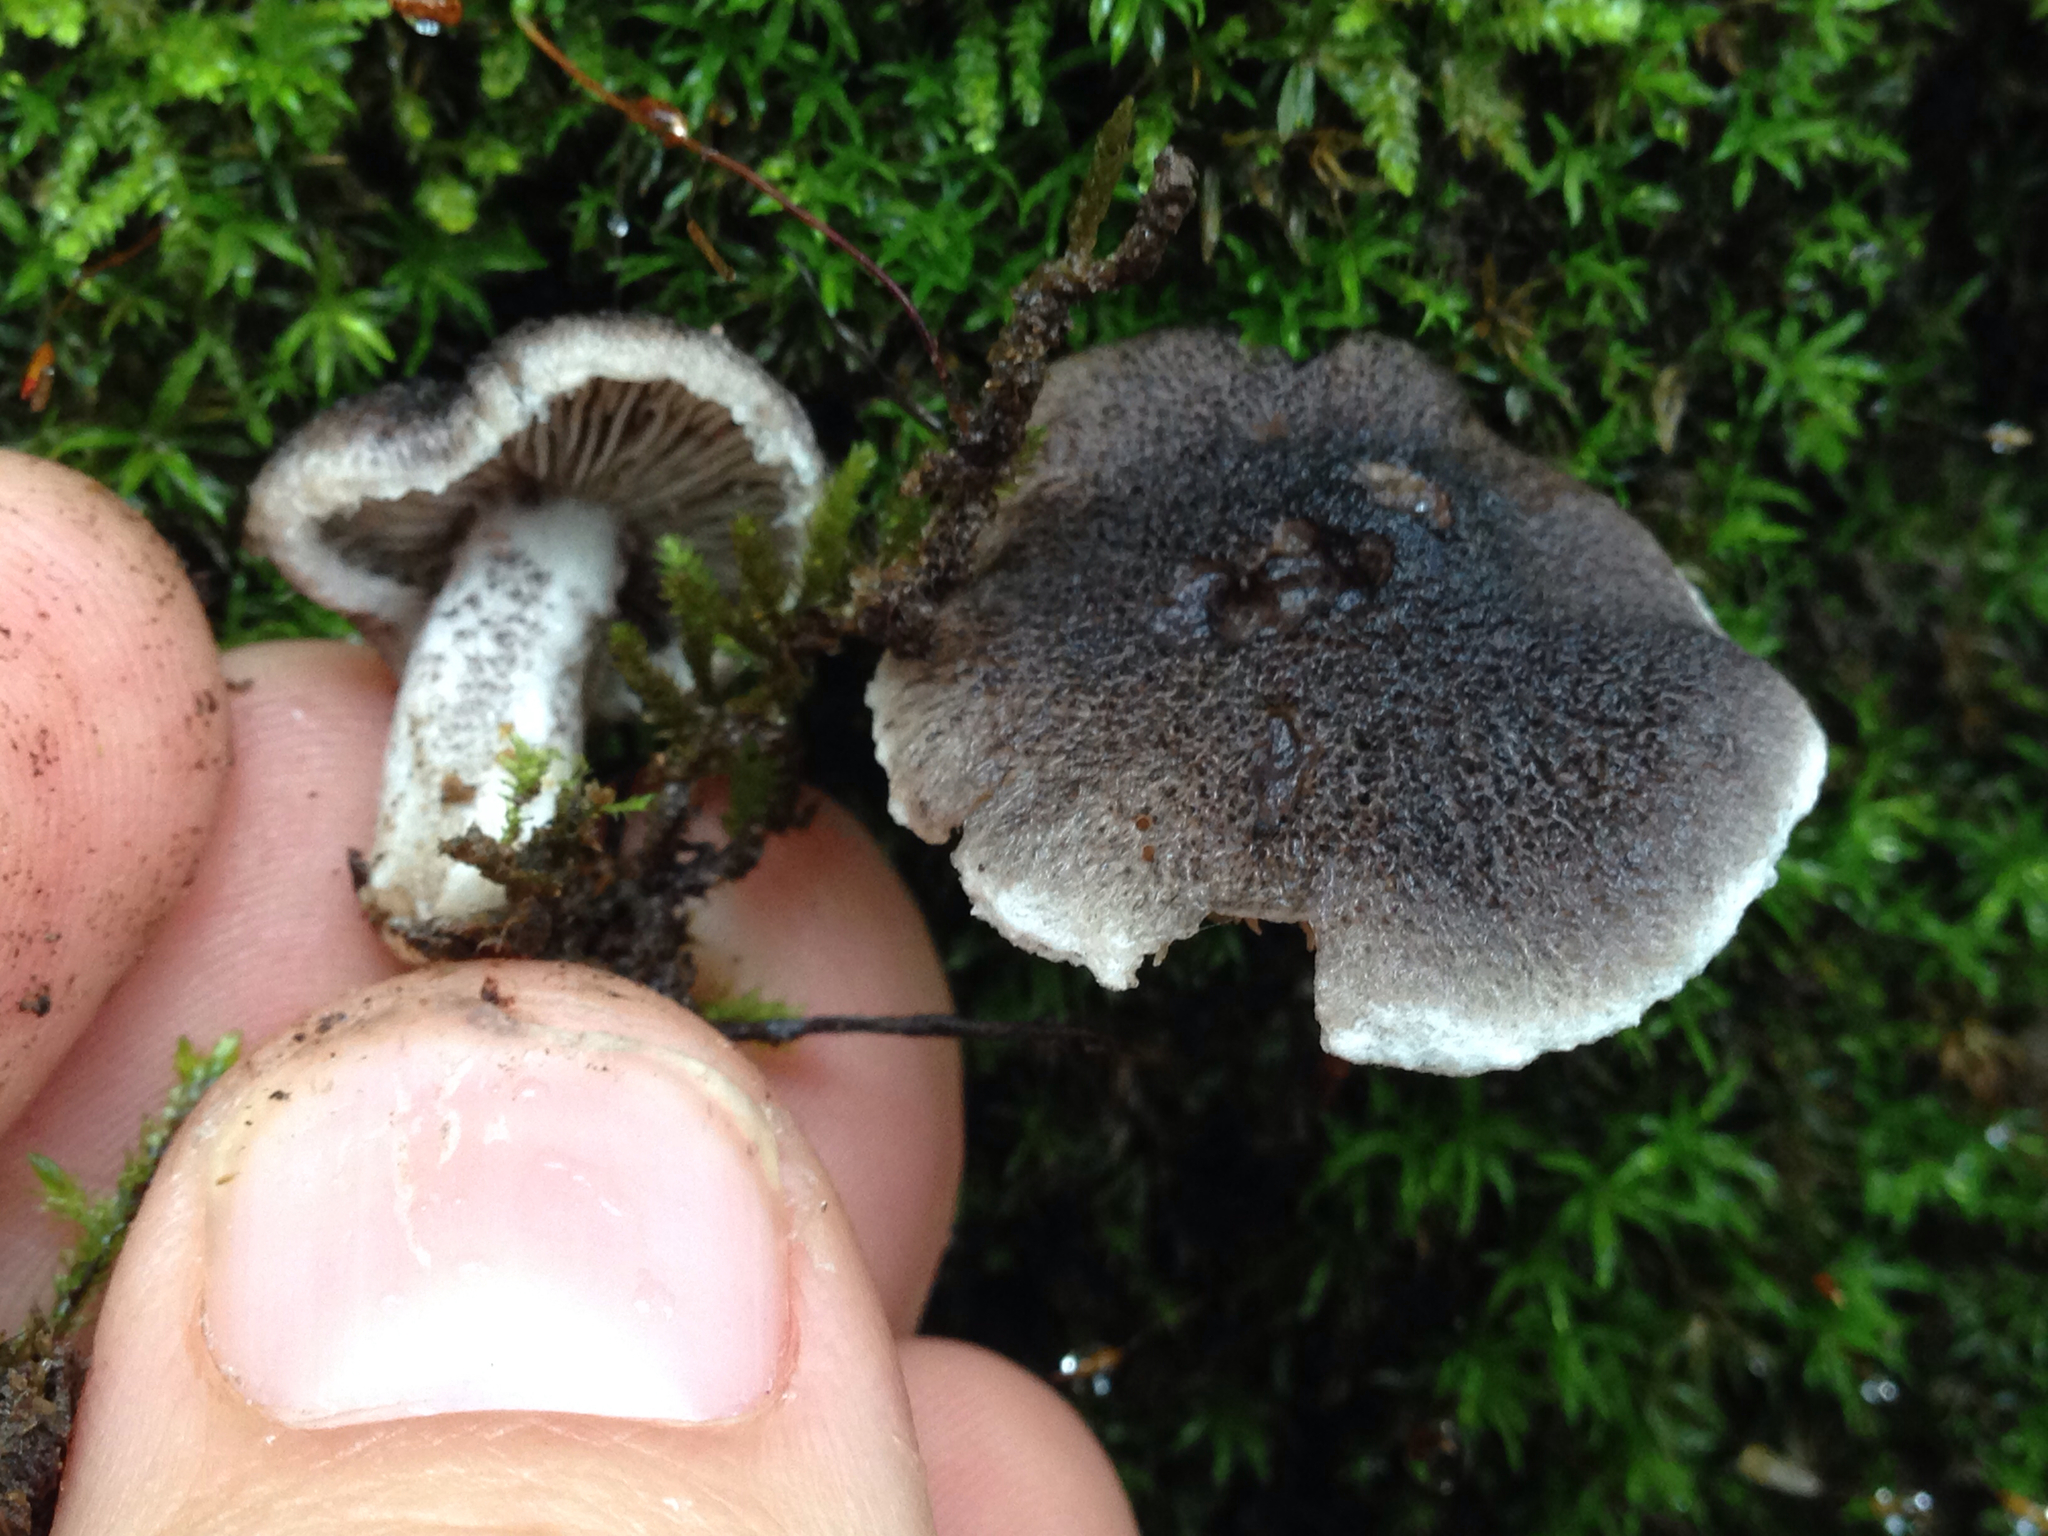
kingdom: Fungi
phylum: Basidiomycota
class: Agaricomycetes
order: Agaricales
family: Tricholomataceae
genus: Tricholoma
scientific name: Tricholoma terreum
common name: Grey knight
